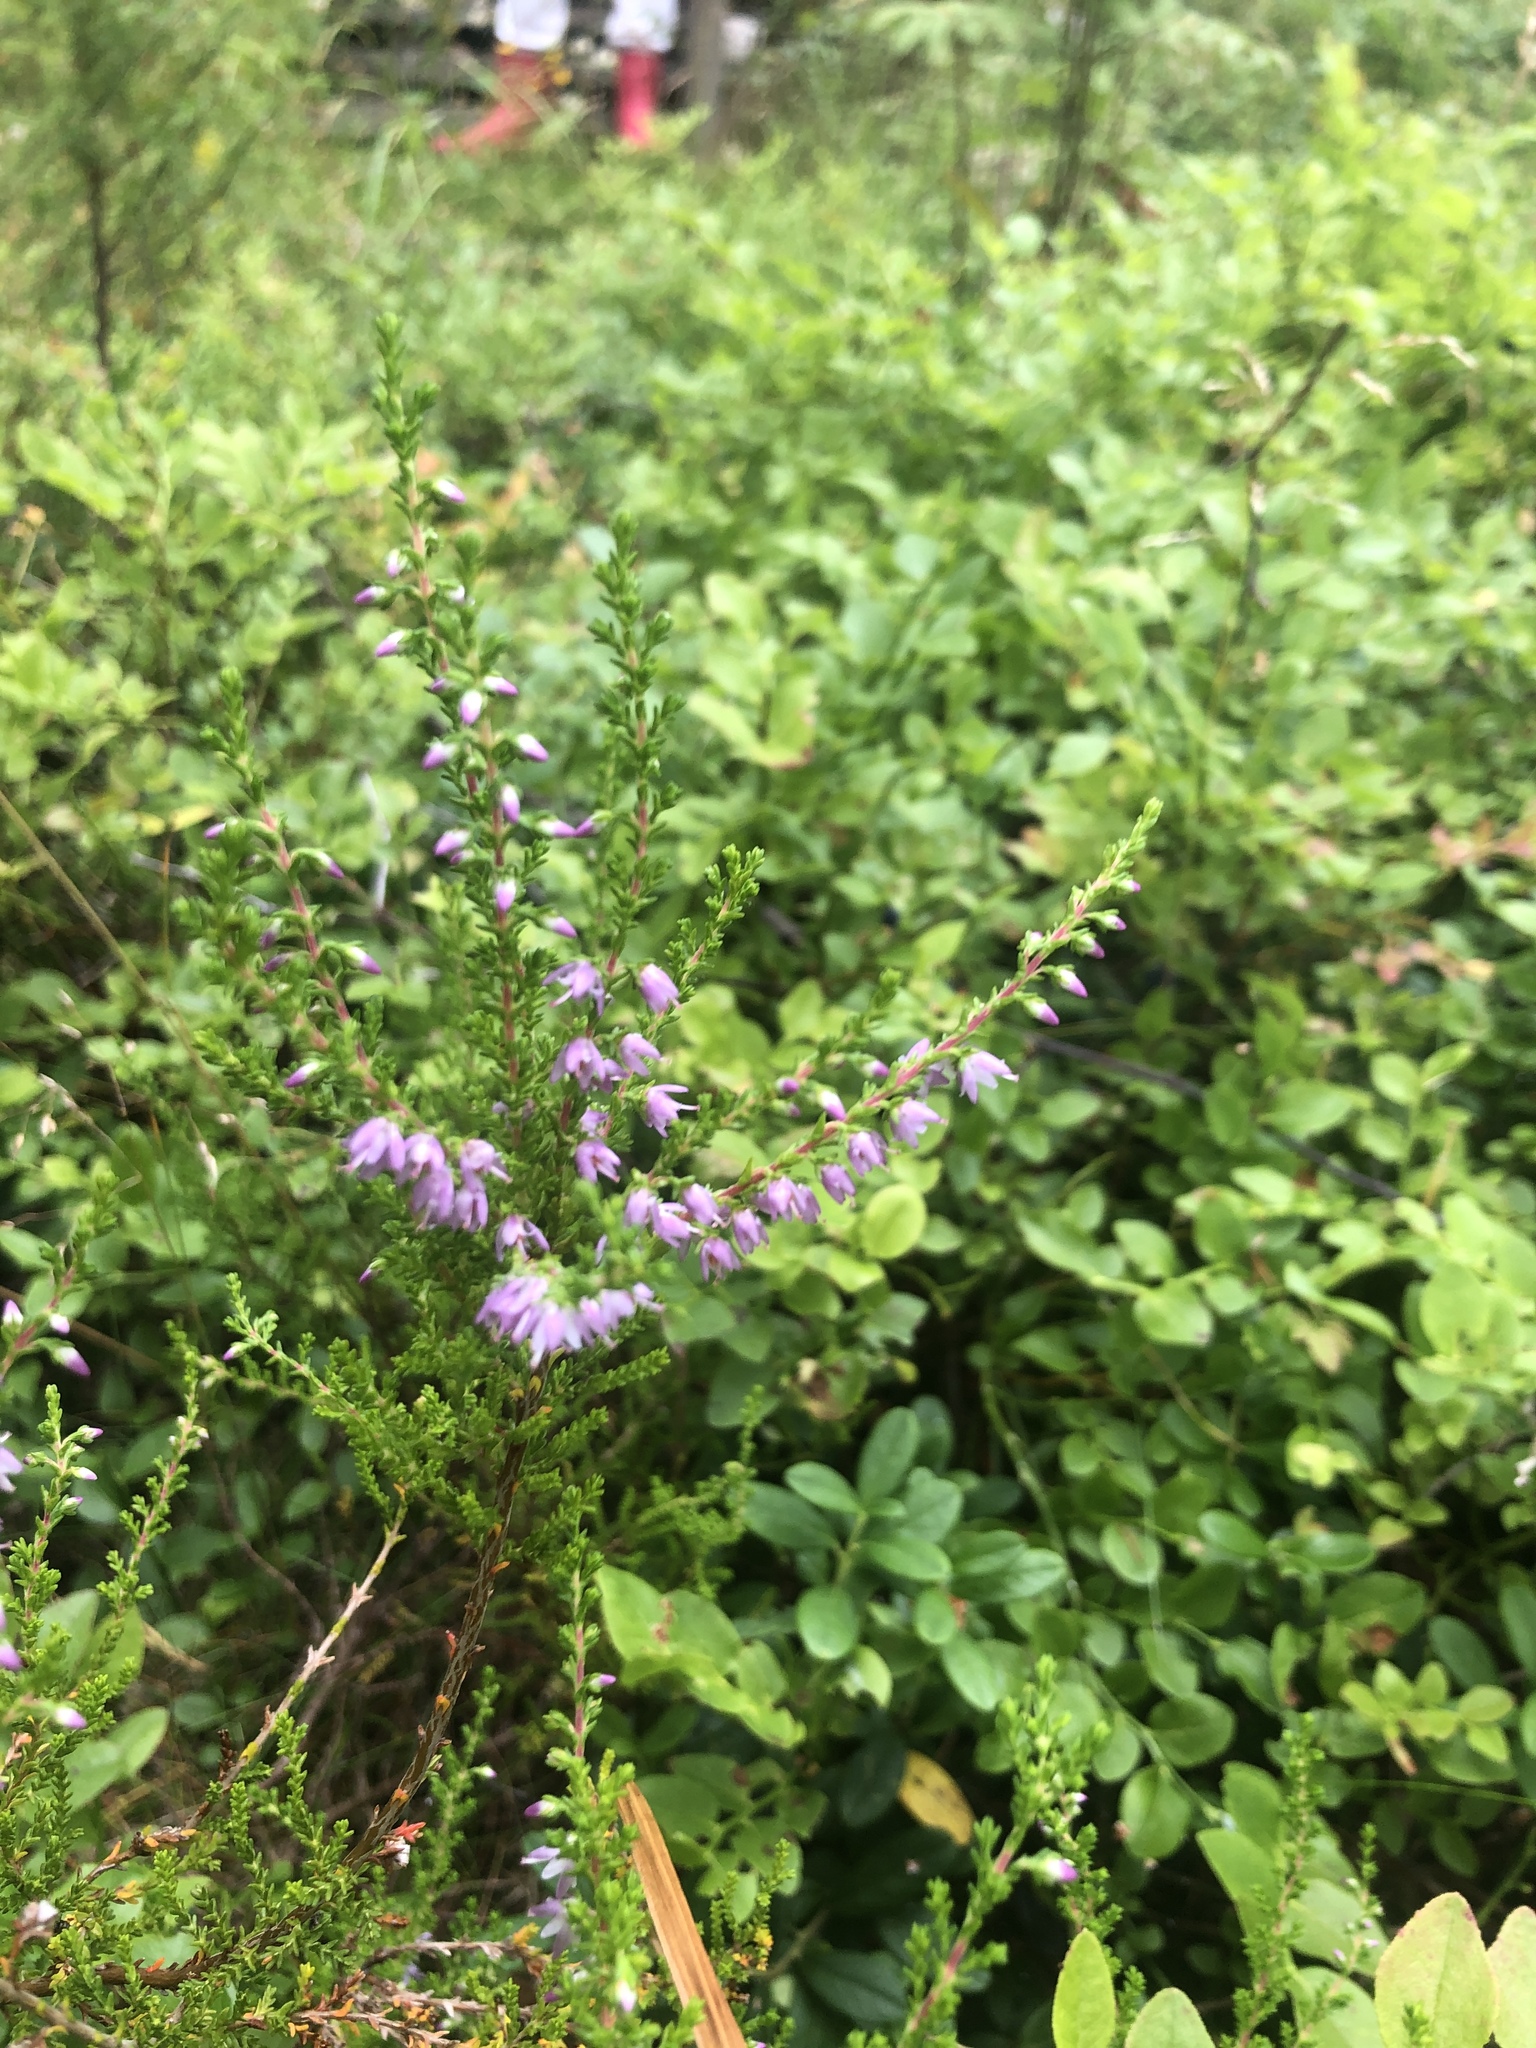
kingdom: Plantae
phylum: Tracheophyta
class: Magnoliopsida
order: Ericales
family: Ericaceae
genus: Calluna
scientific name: Calluna vulgaris
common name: Heather
